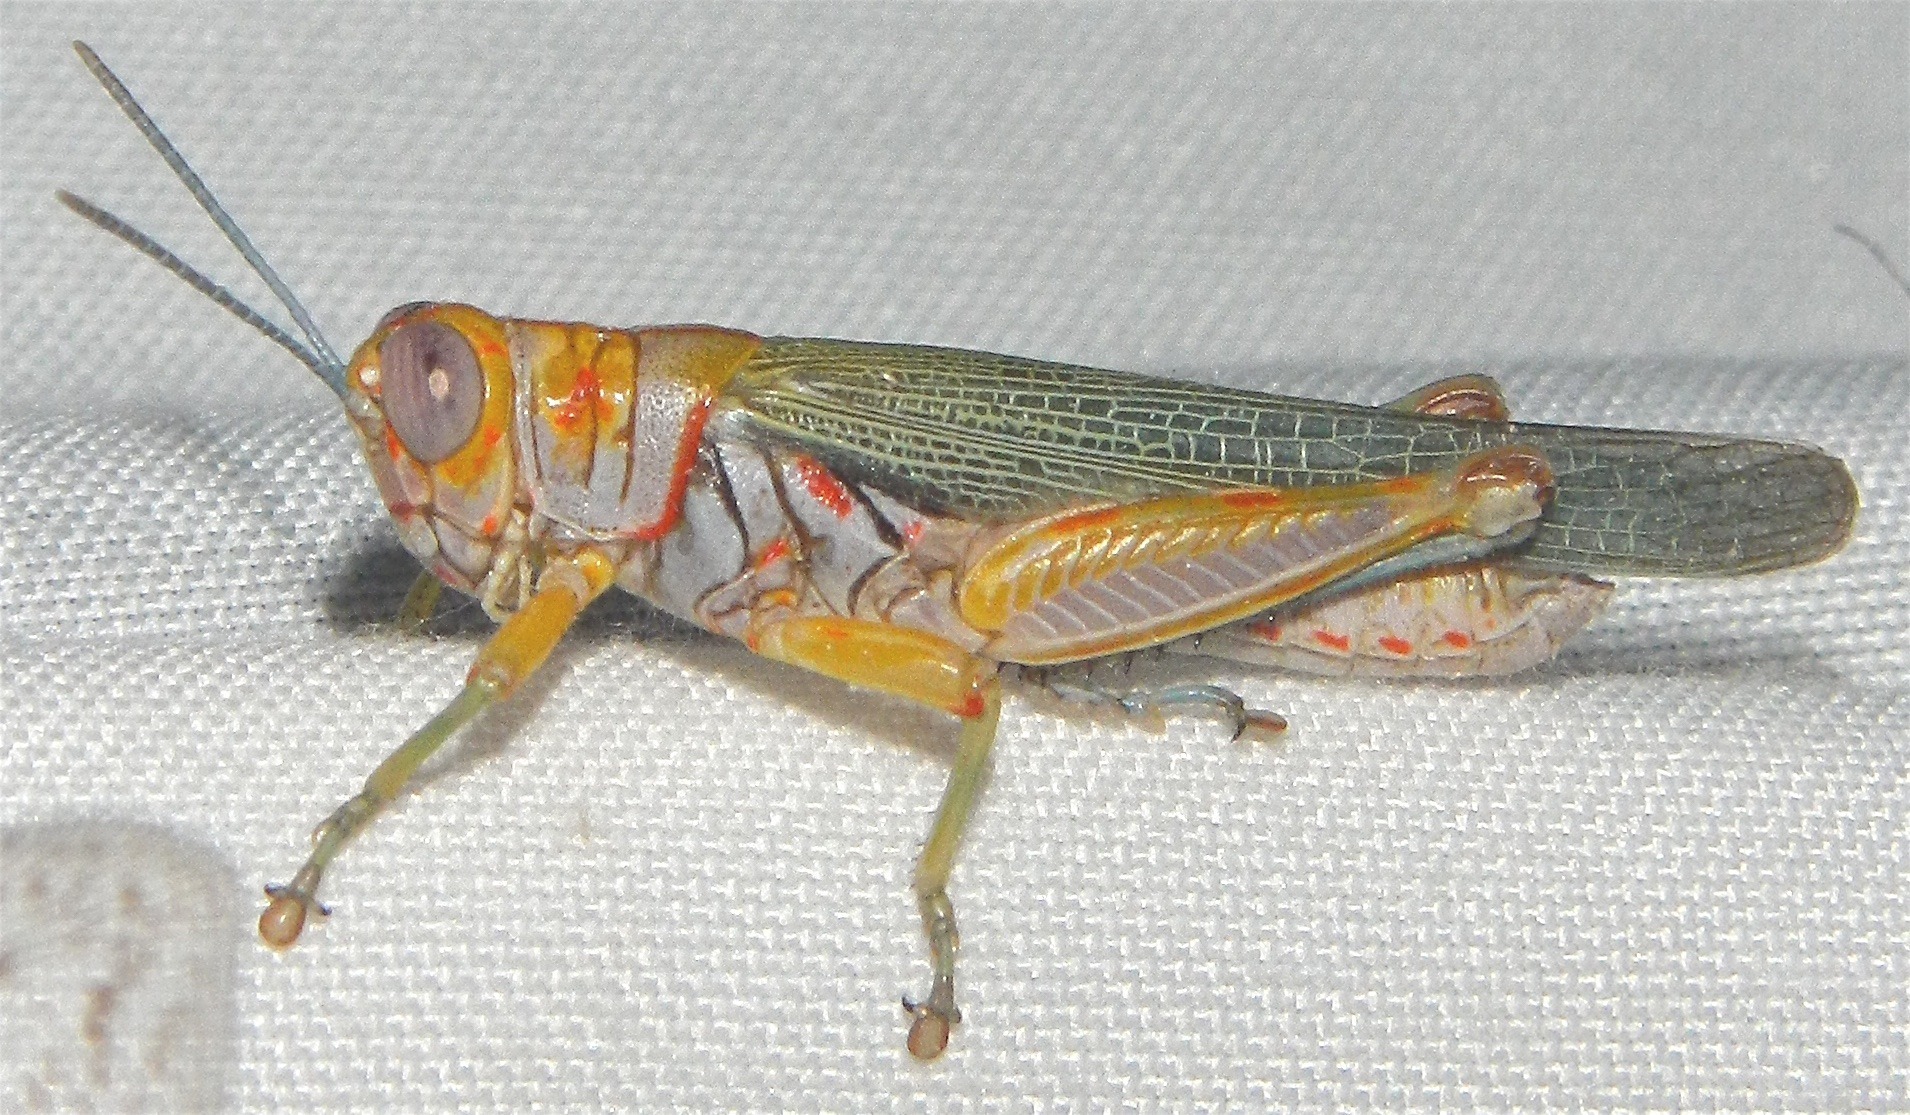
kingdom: Animalia
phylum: Arthropoda
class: Insecta
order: Orthoptera
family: Acrididae
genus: Poecilotettix
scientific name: Poecilotettix sanguineus
